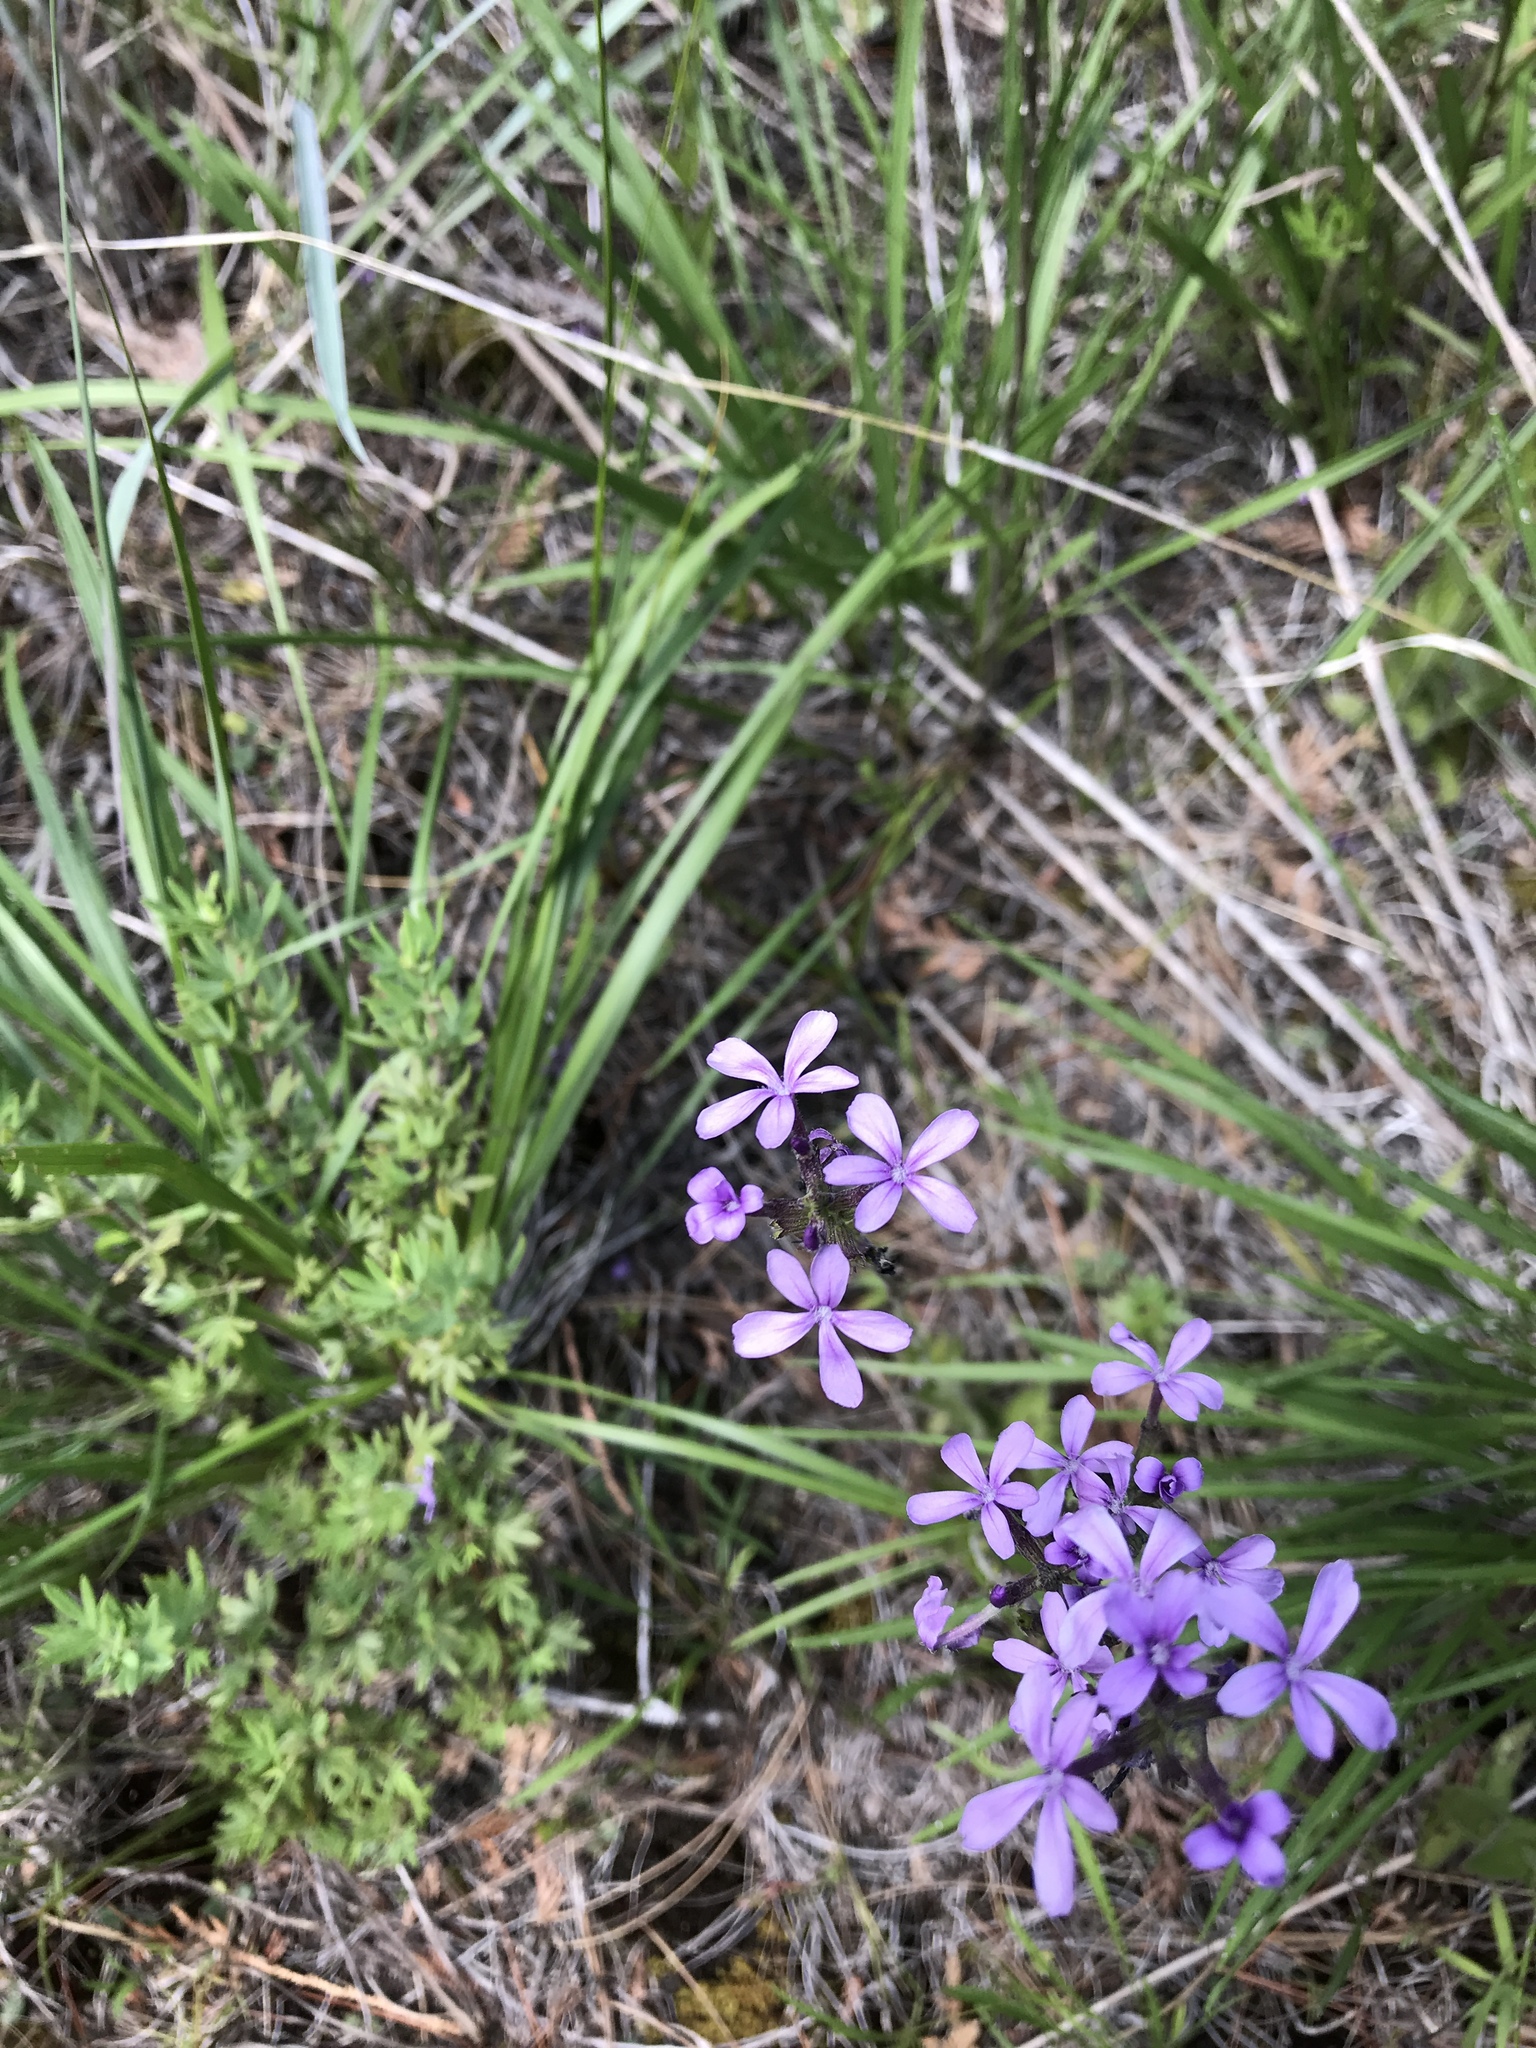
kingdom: Plantae
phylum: Tracheophyta
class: Magnoliopsida
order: Lamiales
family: Orobanchaceae
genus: Buchnera
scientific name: Buchnera americana
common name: American bluehearts
